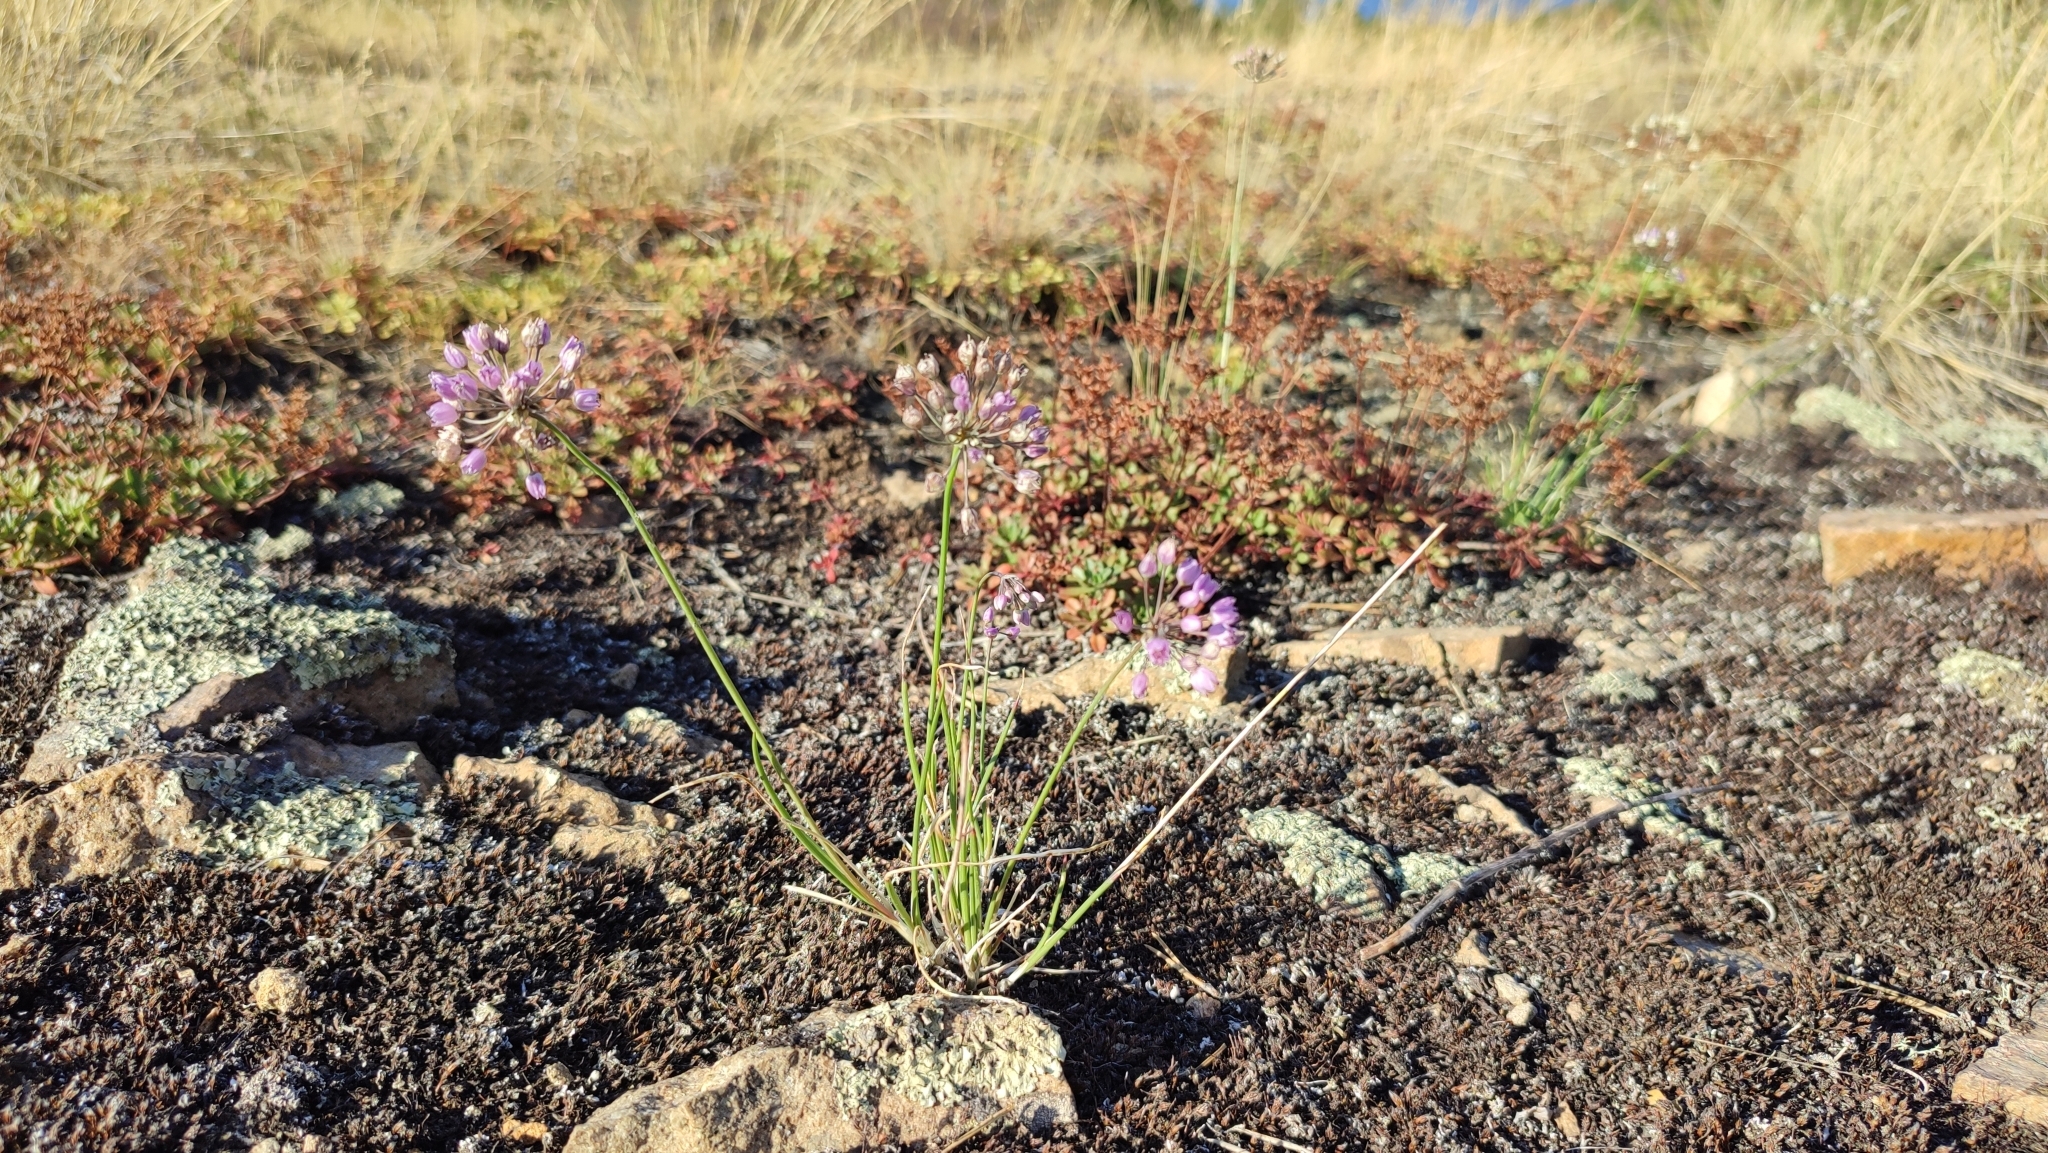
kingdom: Plantae
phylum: Tracheophyta
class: Liliopsida
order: Asparagales
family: Amaryllidaceae
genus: Allium
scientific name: Allium rubens
